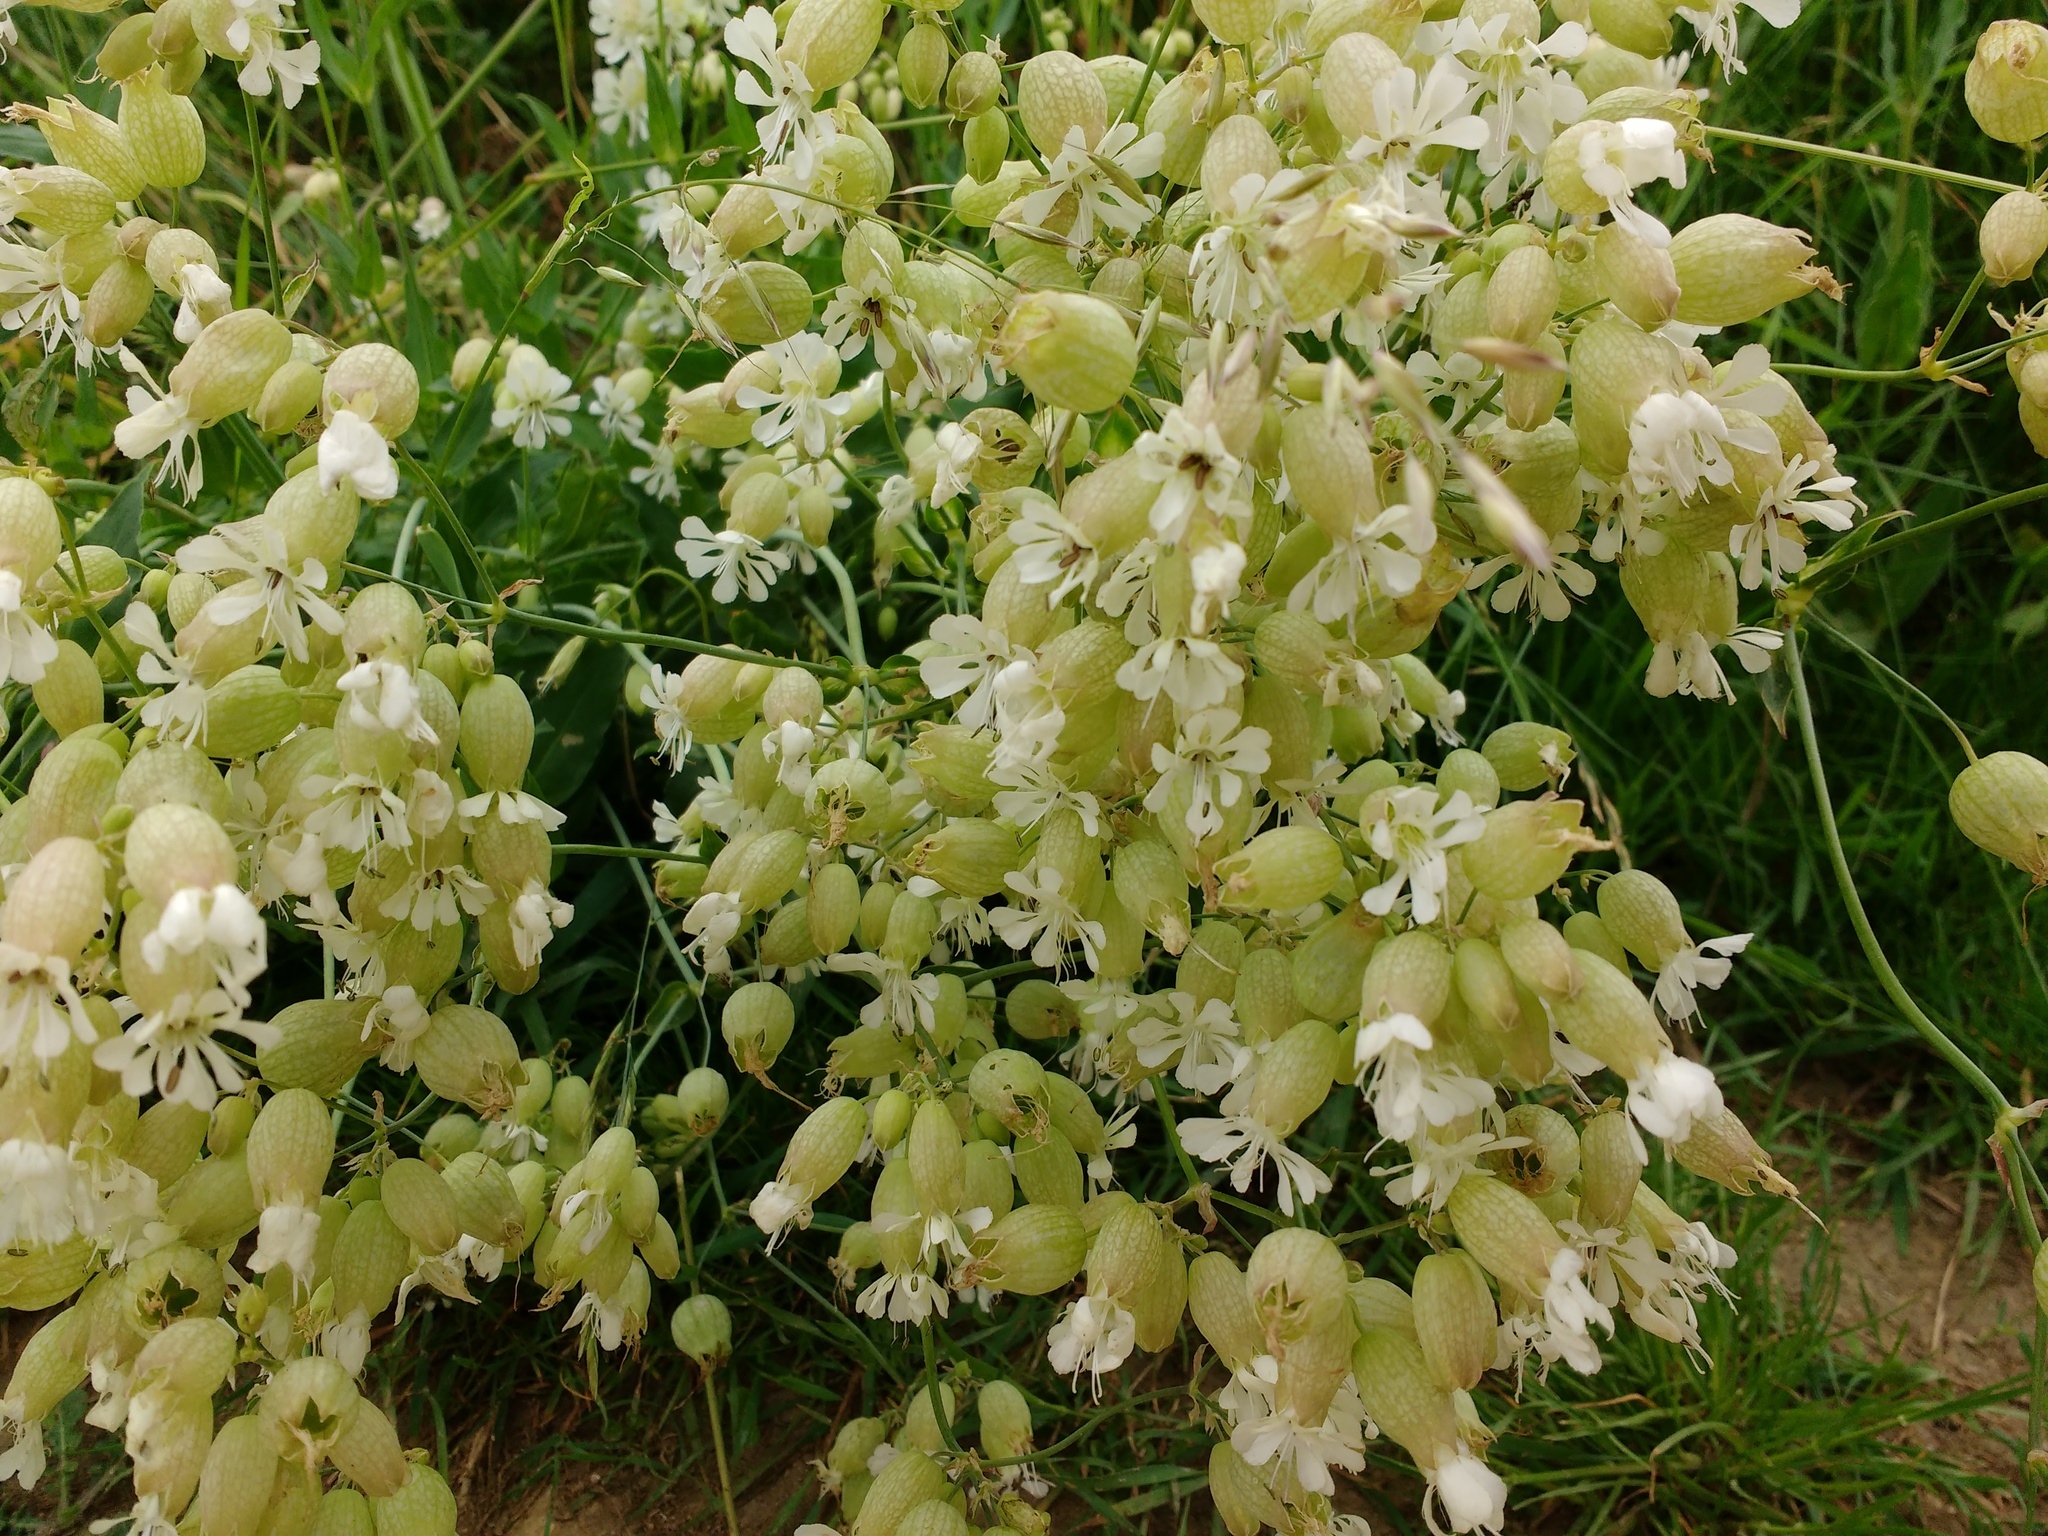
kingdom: Plantae
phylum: Tracheophyta
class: Magnoliopsida
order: Caryophyllales
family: Caryophyllaceae
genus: Silene
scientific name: Silene vulgaris
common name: Bladder campion
